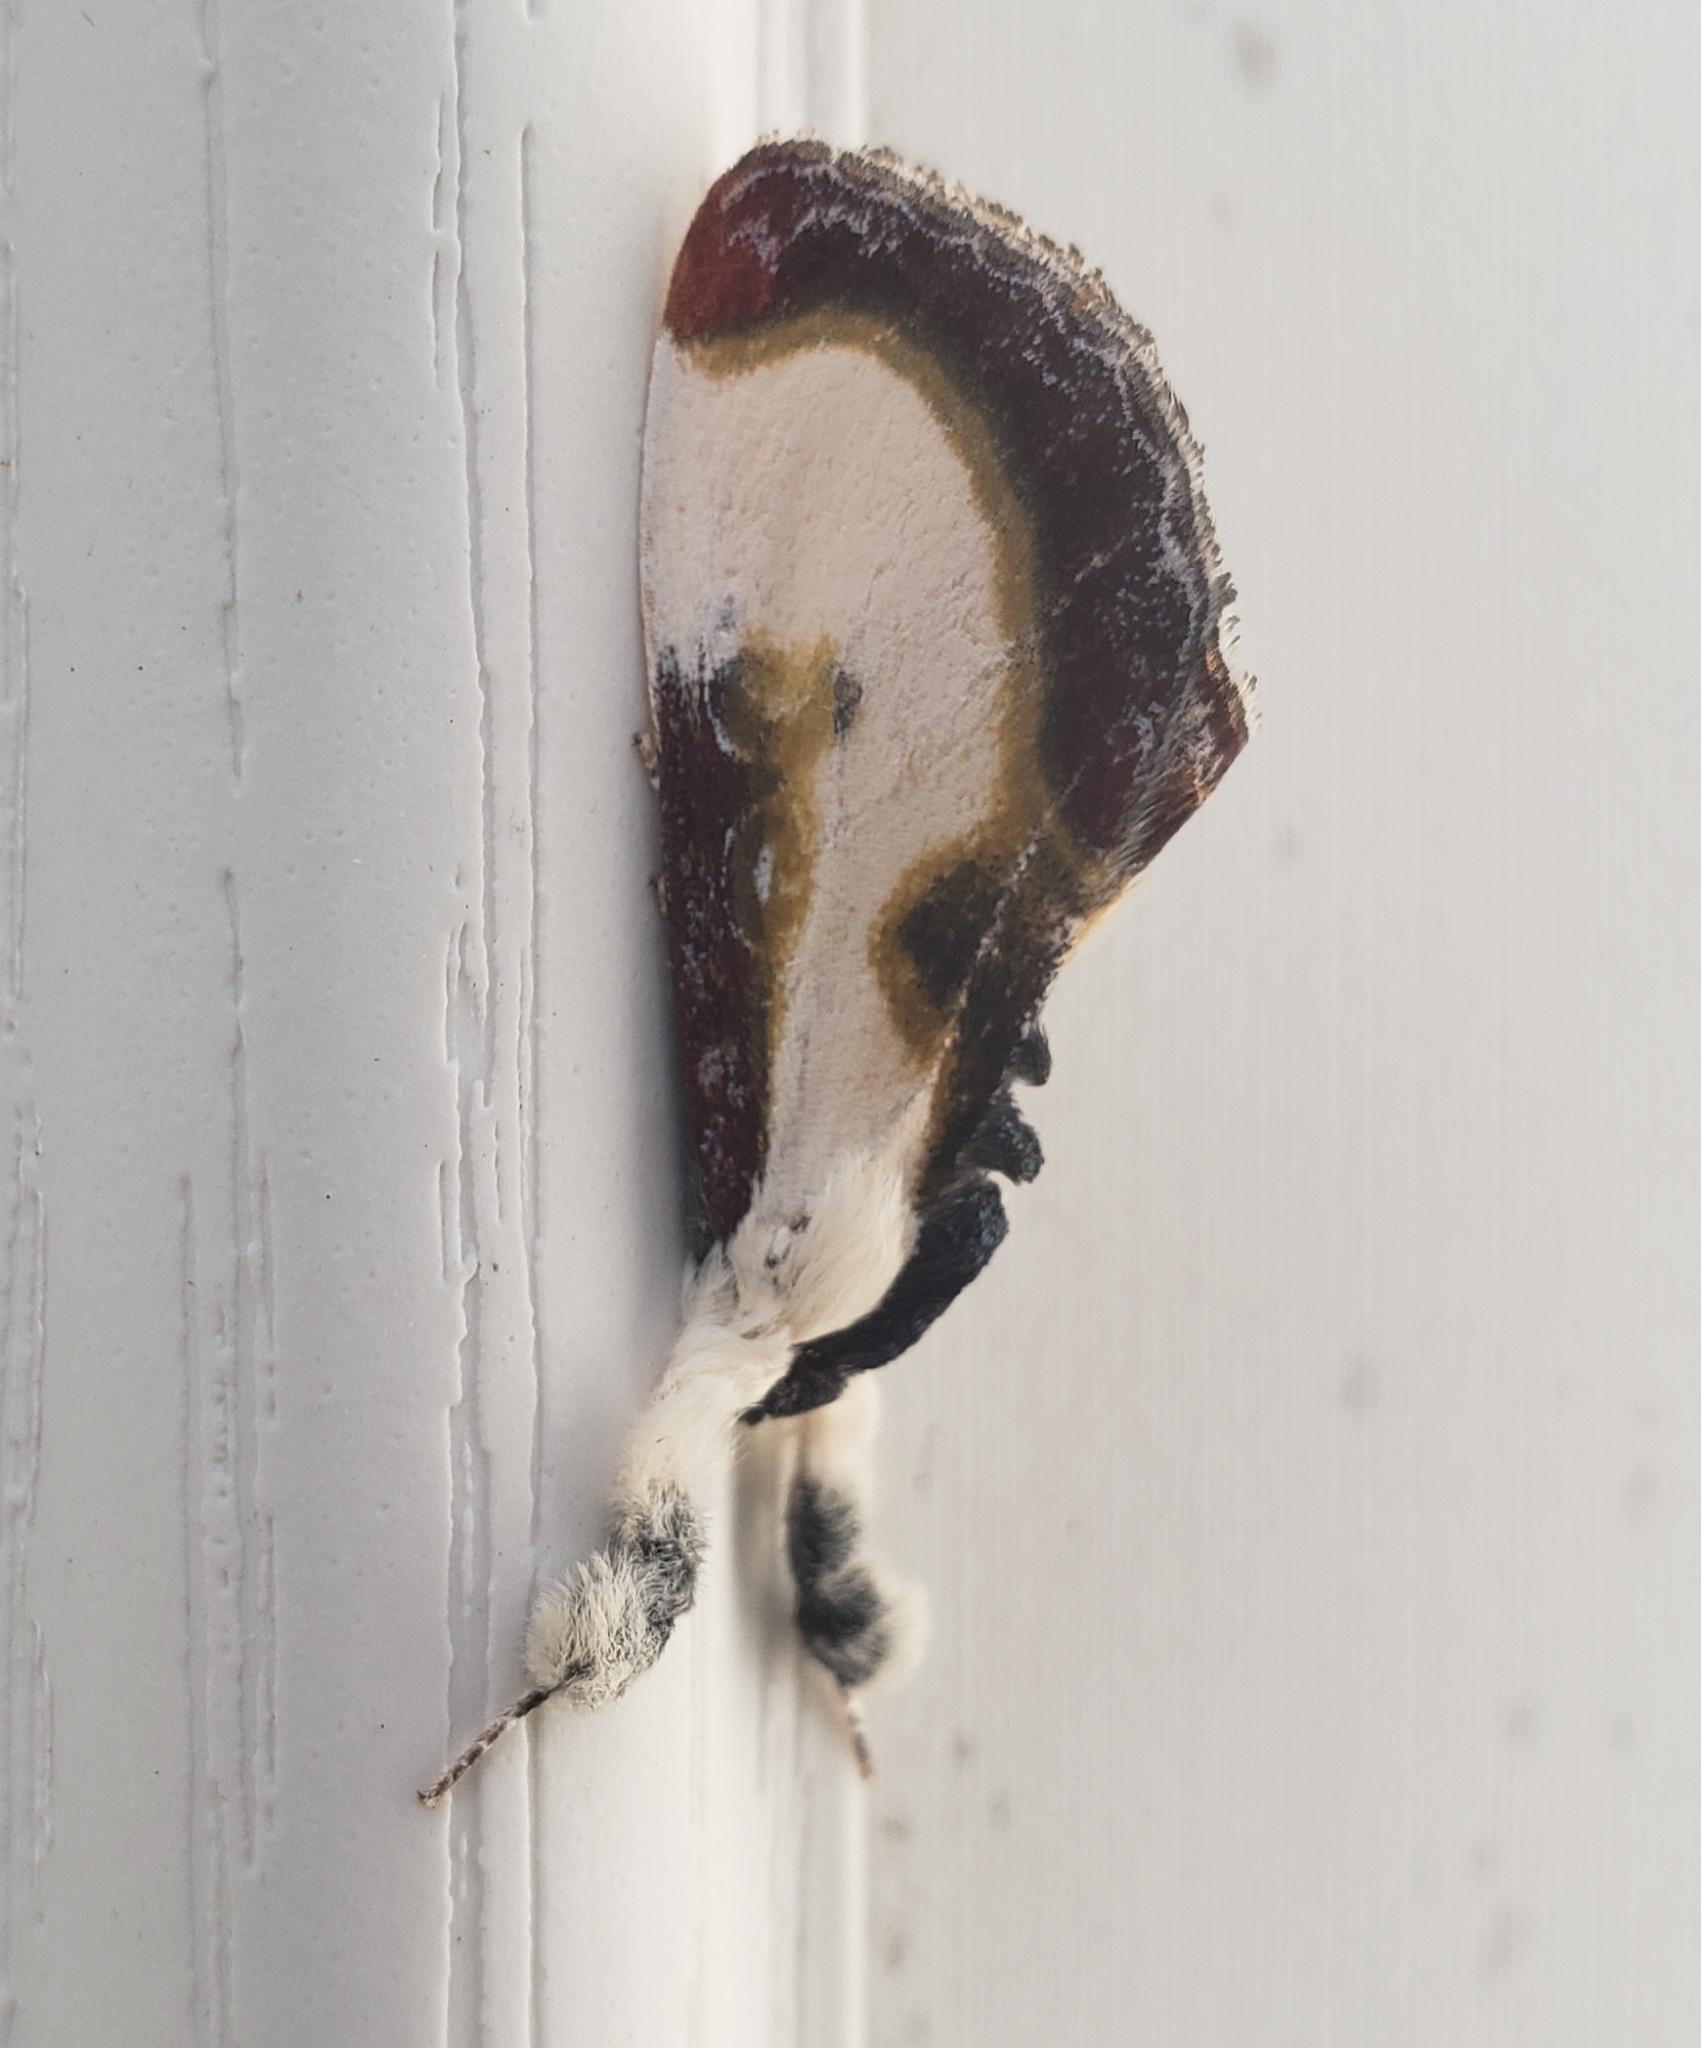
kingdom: Animalia
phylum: Arthropoda
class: Insecta
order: Lepidoptera
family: Noctuidae
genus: Eudryas
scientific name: Eudryas grata
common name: Beautiful wood-nymph
